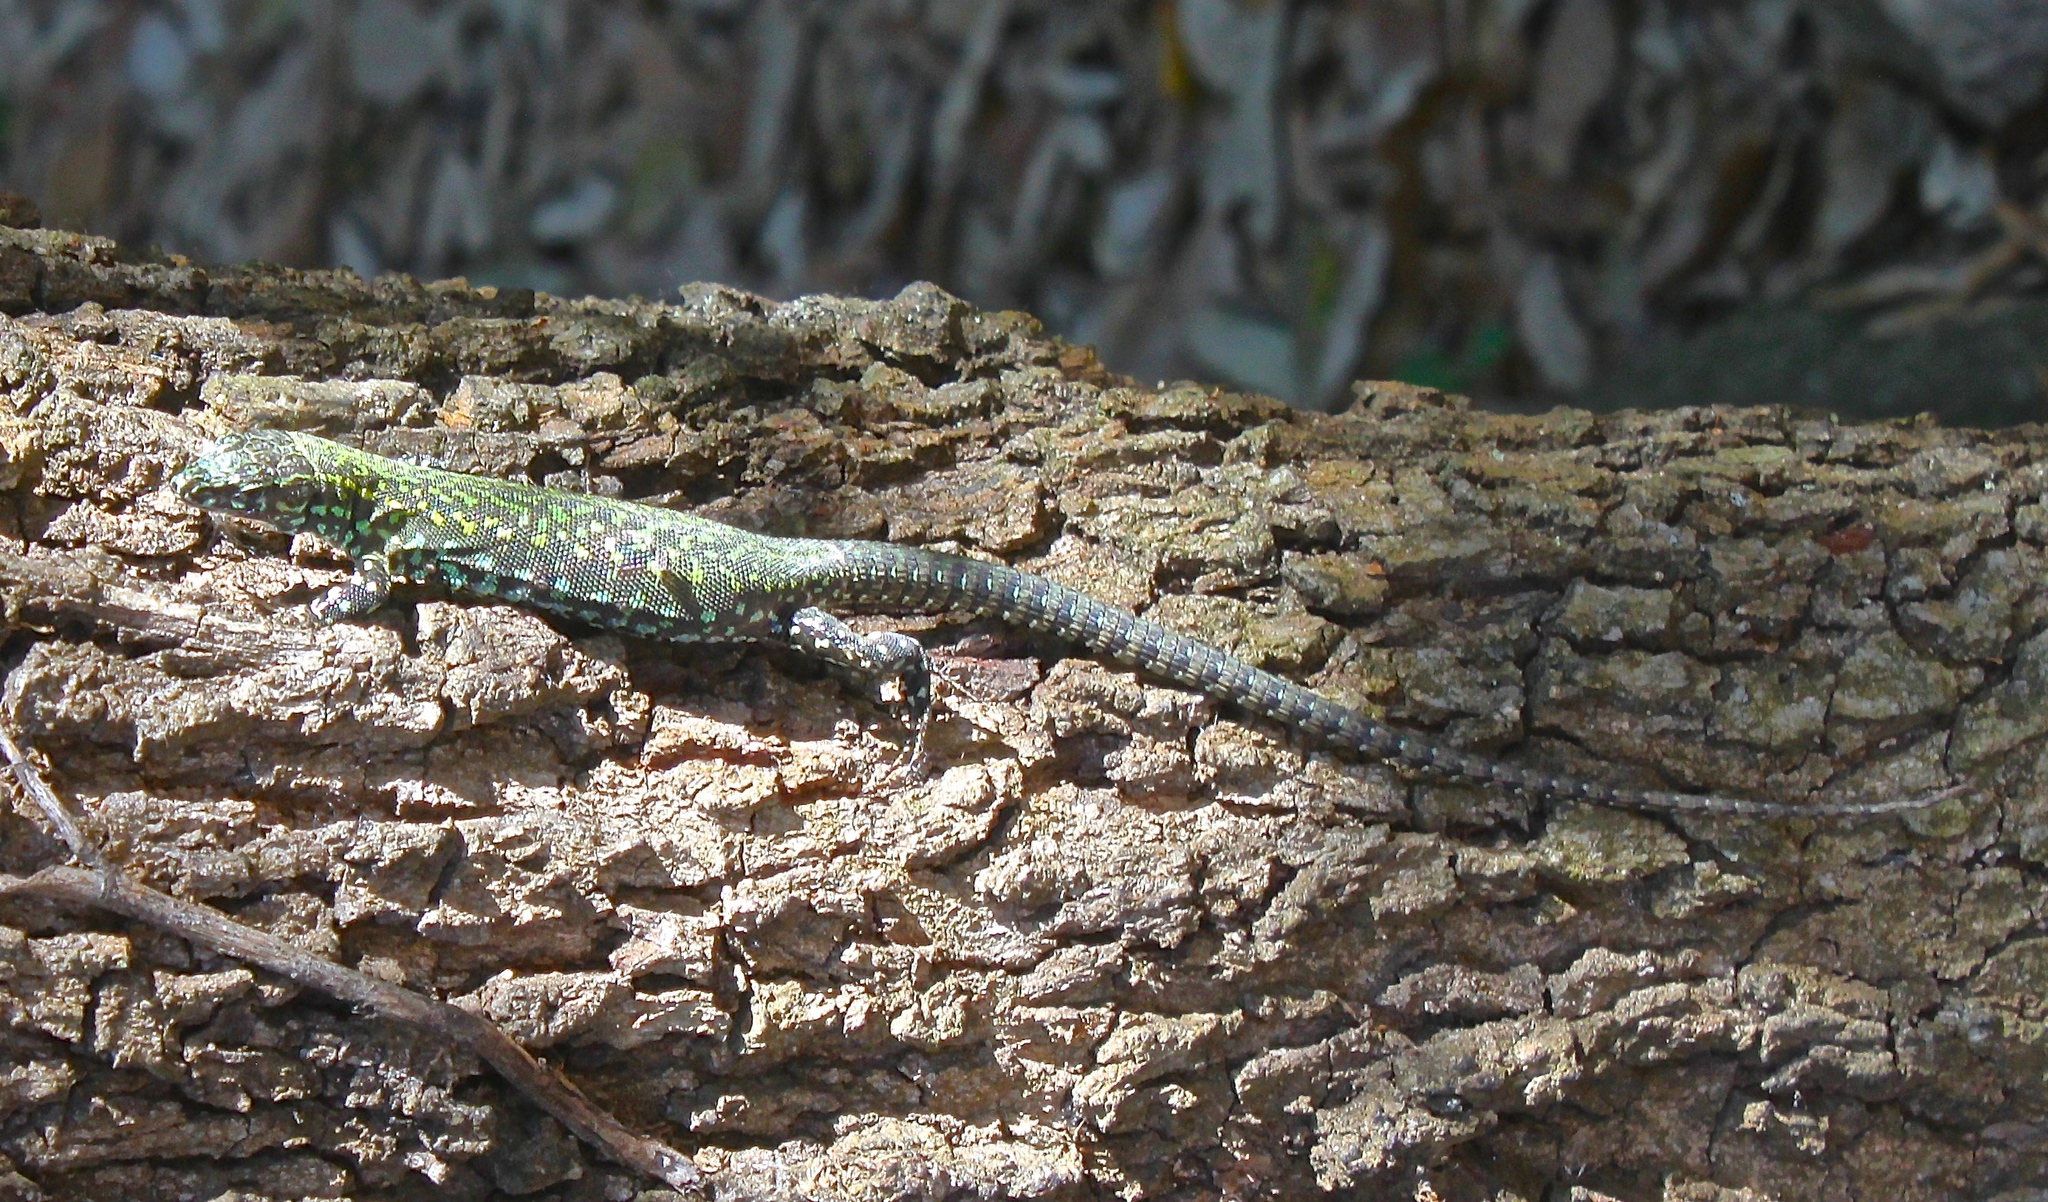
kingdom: Animalia
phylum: Chordata
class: Squamata
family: Lacertidae
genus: Podarcis
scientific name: Podarcis muralis
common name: Common wall lizard
